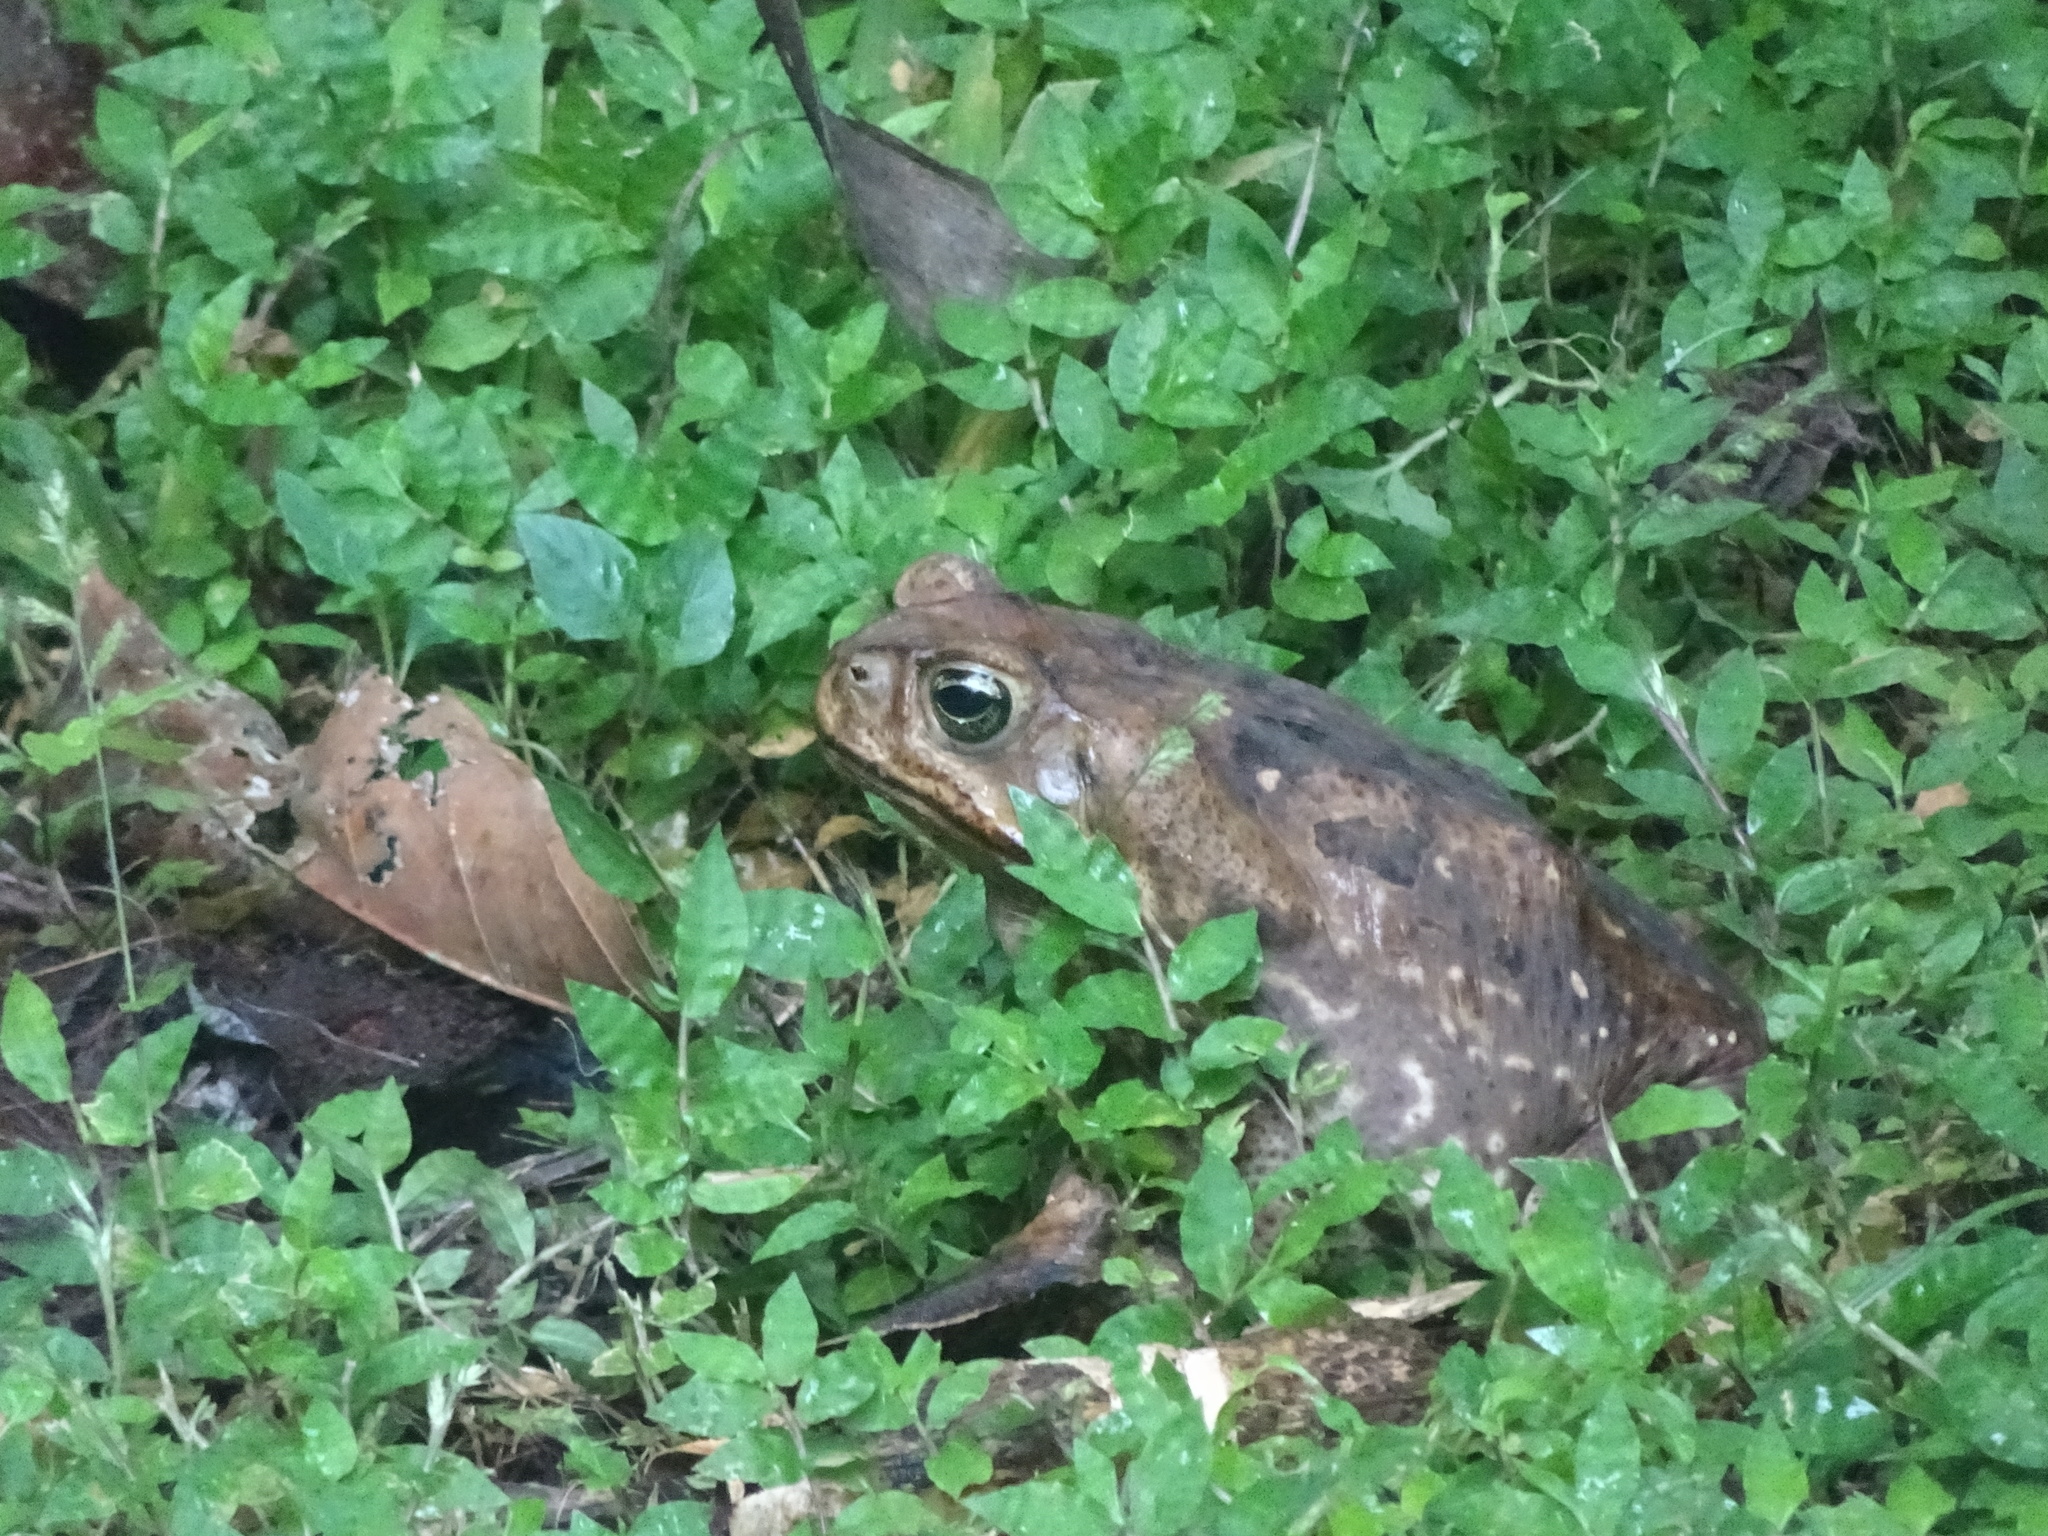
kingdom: Animalia
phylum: Chordata
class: Amphibia
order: Anura
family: Bufonidae
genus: Rhinella
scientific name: Rhinella horribilis
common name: Mesoamerican cane toad
